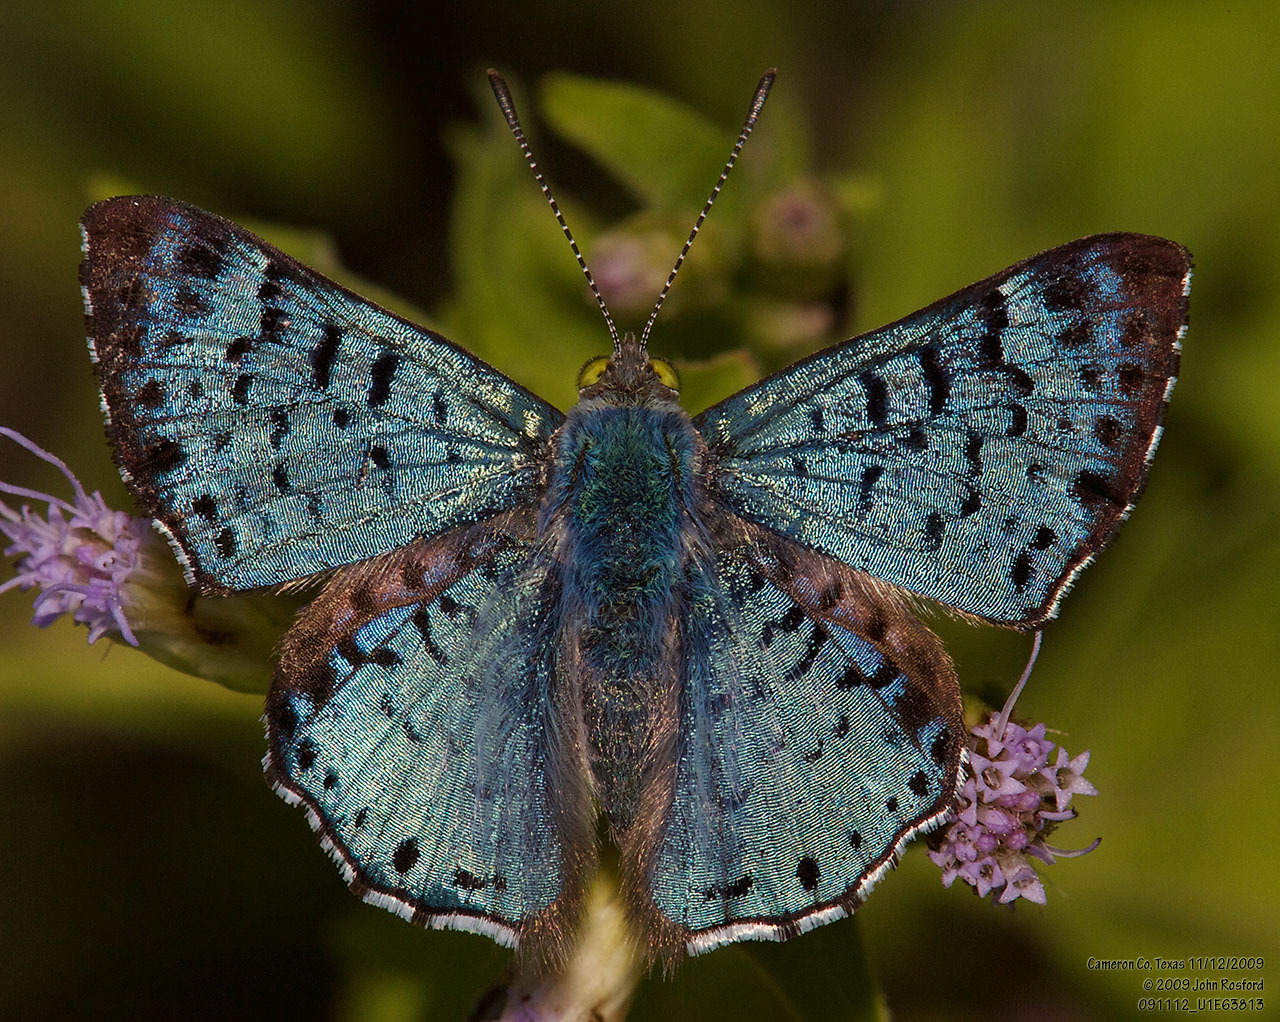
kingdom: Animalia
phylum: Arthropoda
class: Insecta
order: Lepidoptera
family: Riodinidae
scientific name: Riodinidae
